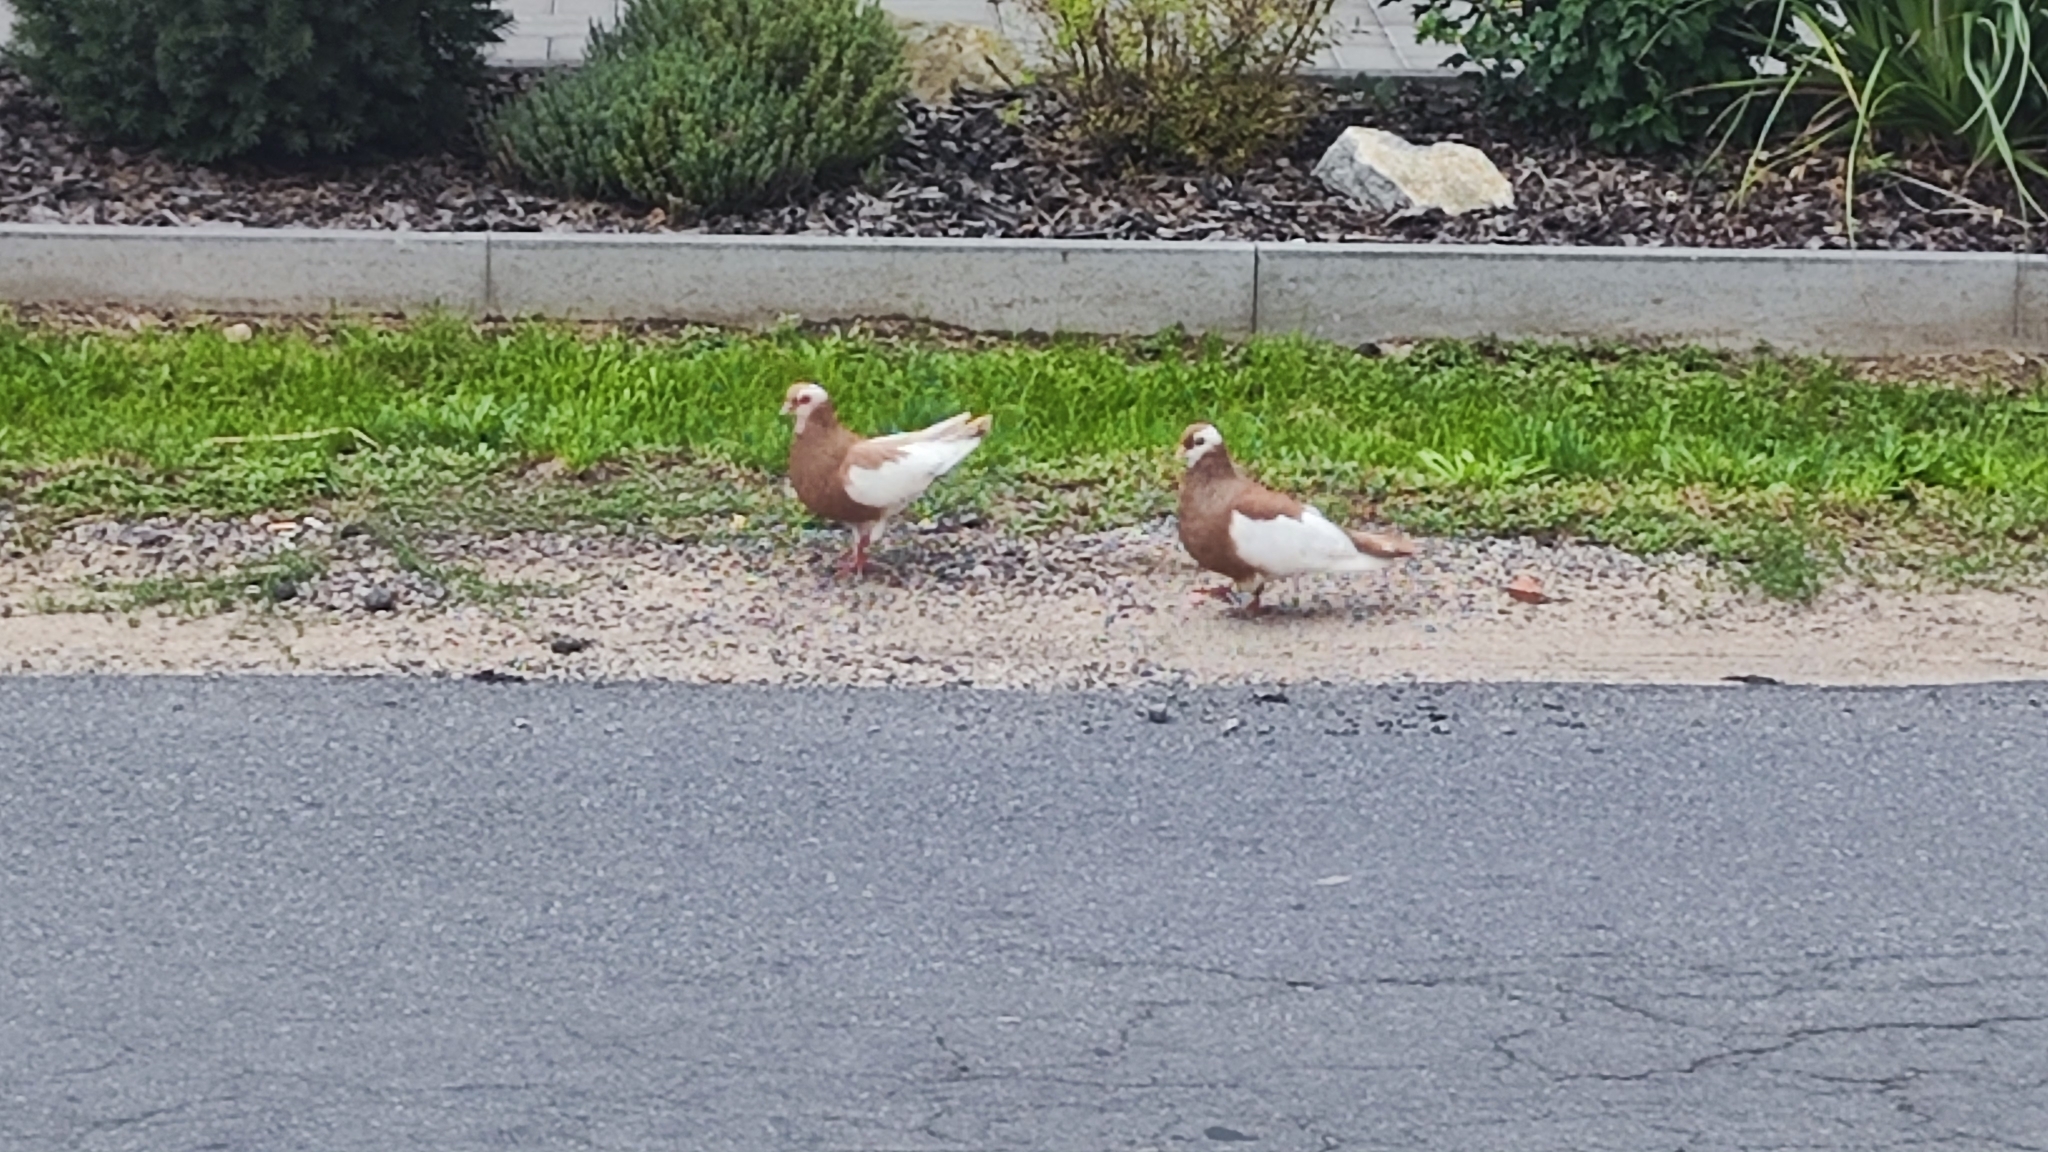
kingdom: Animalia
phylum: Chordata
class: Aves
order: Columbiformes
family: Columbidae
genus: Columba
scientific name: Columba livia
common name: Rock pigeon
